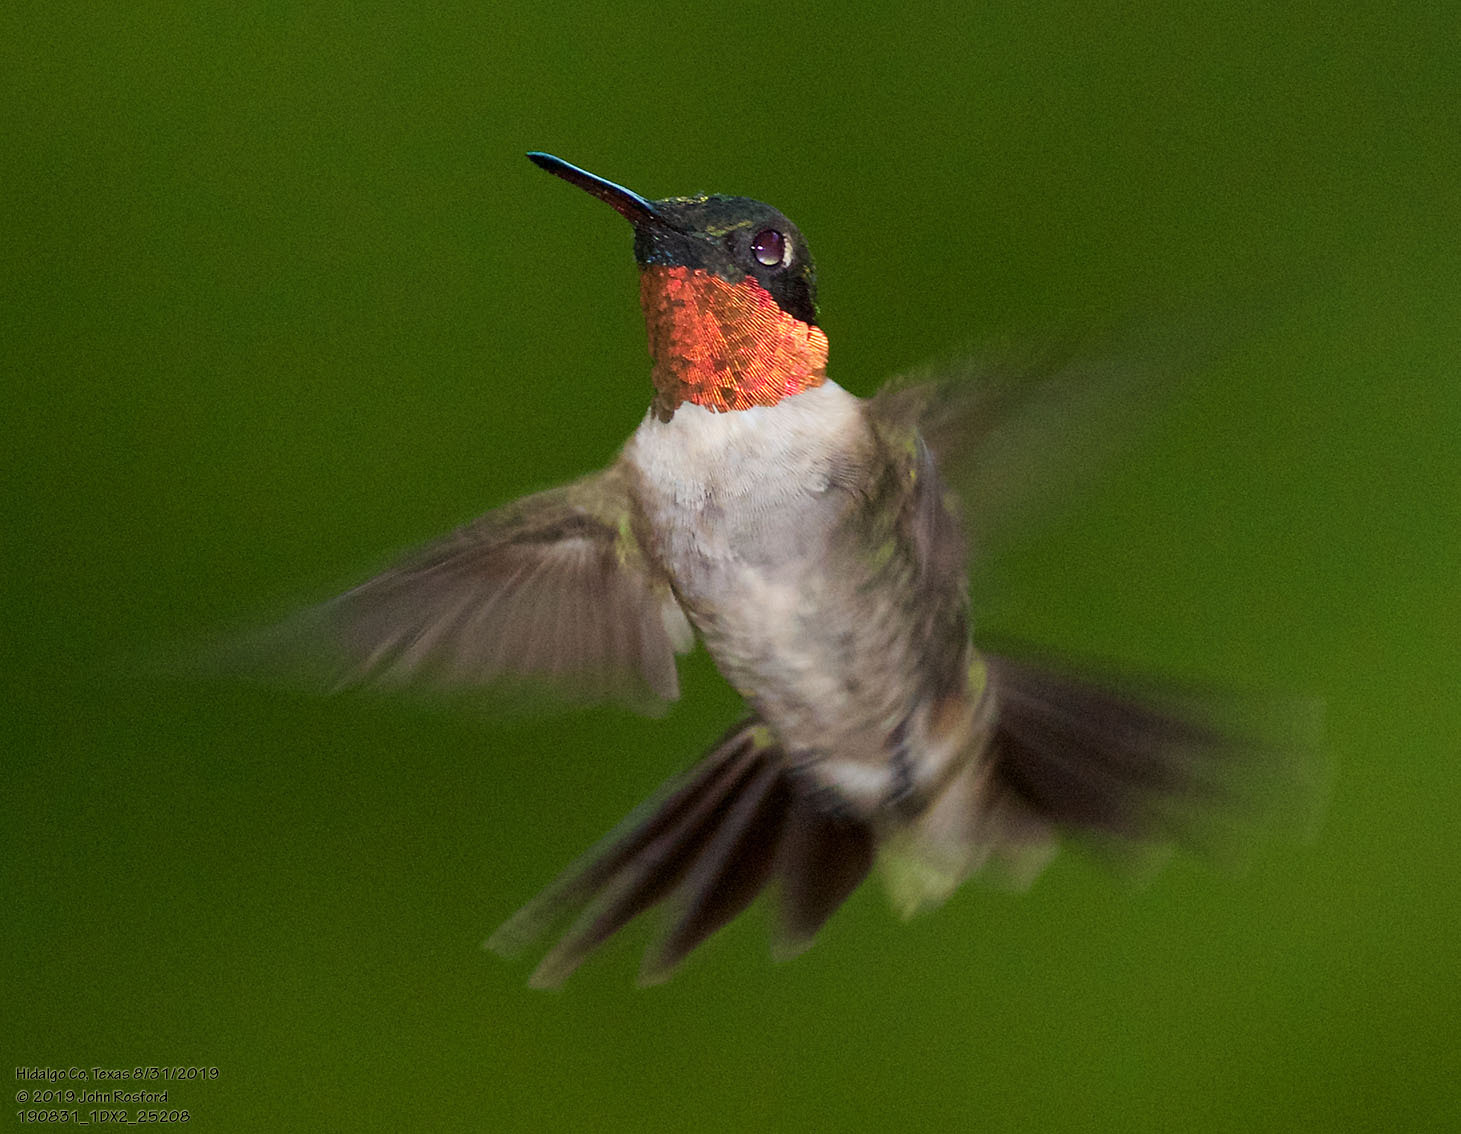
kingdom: Animalia
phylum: Chordata
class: Aves
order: Apodiformes
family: Trochilidae
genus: Archilochus
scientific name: Archilochus colubris
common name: Ruby-throated hummingbird
